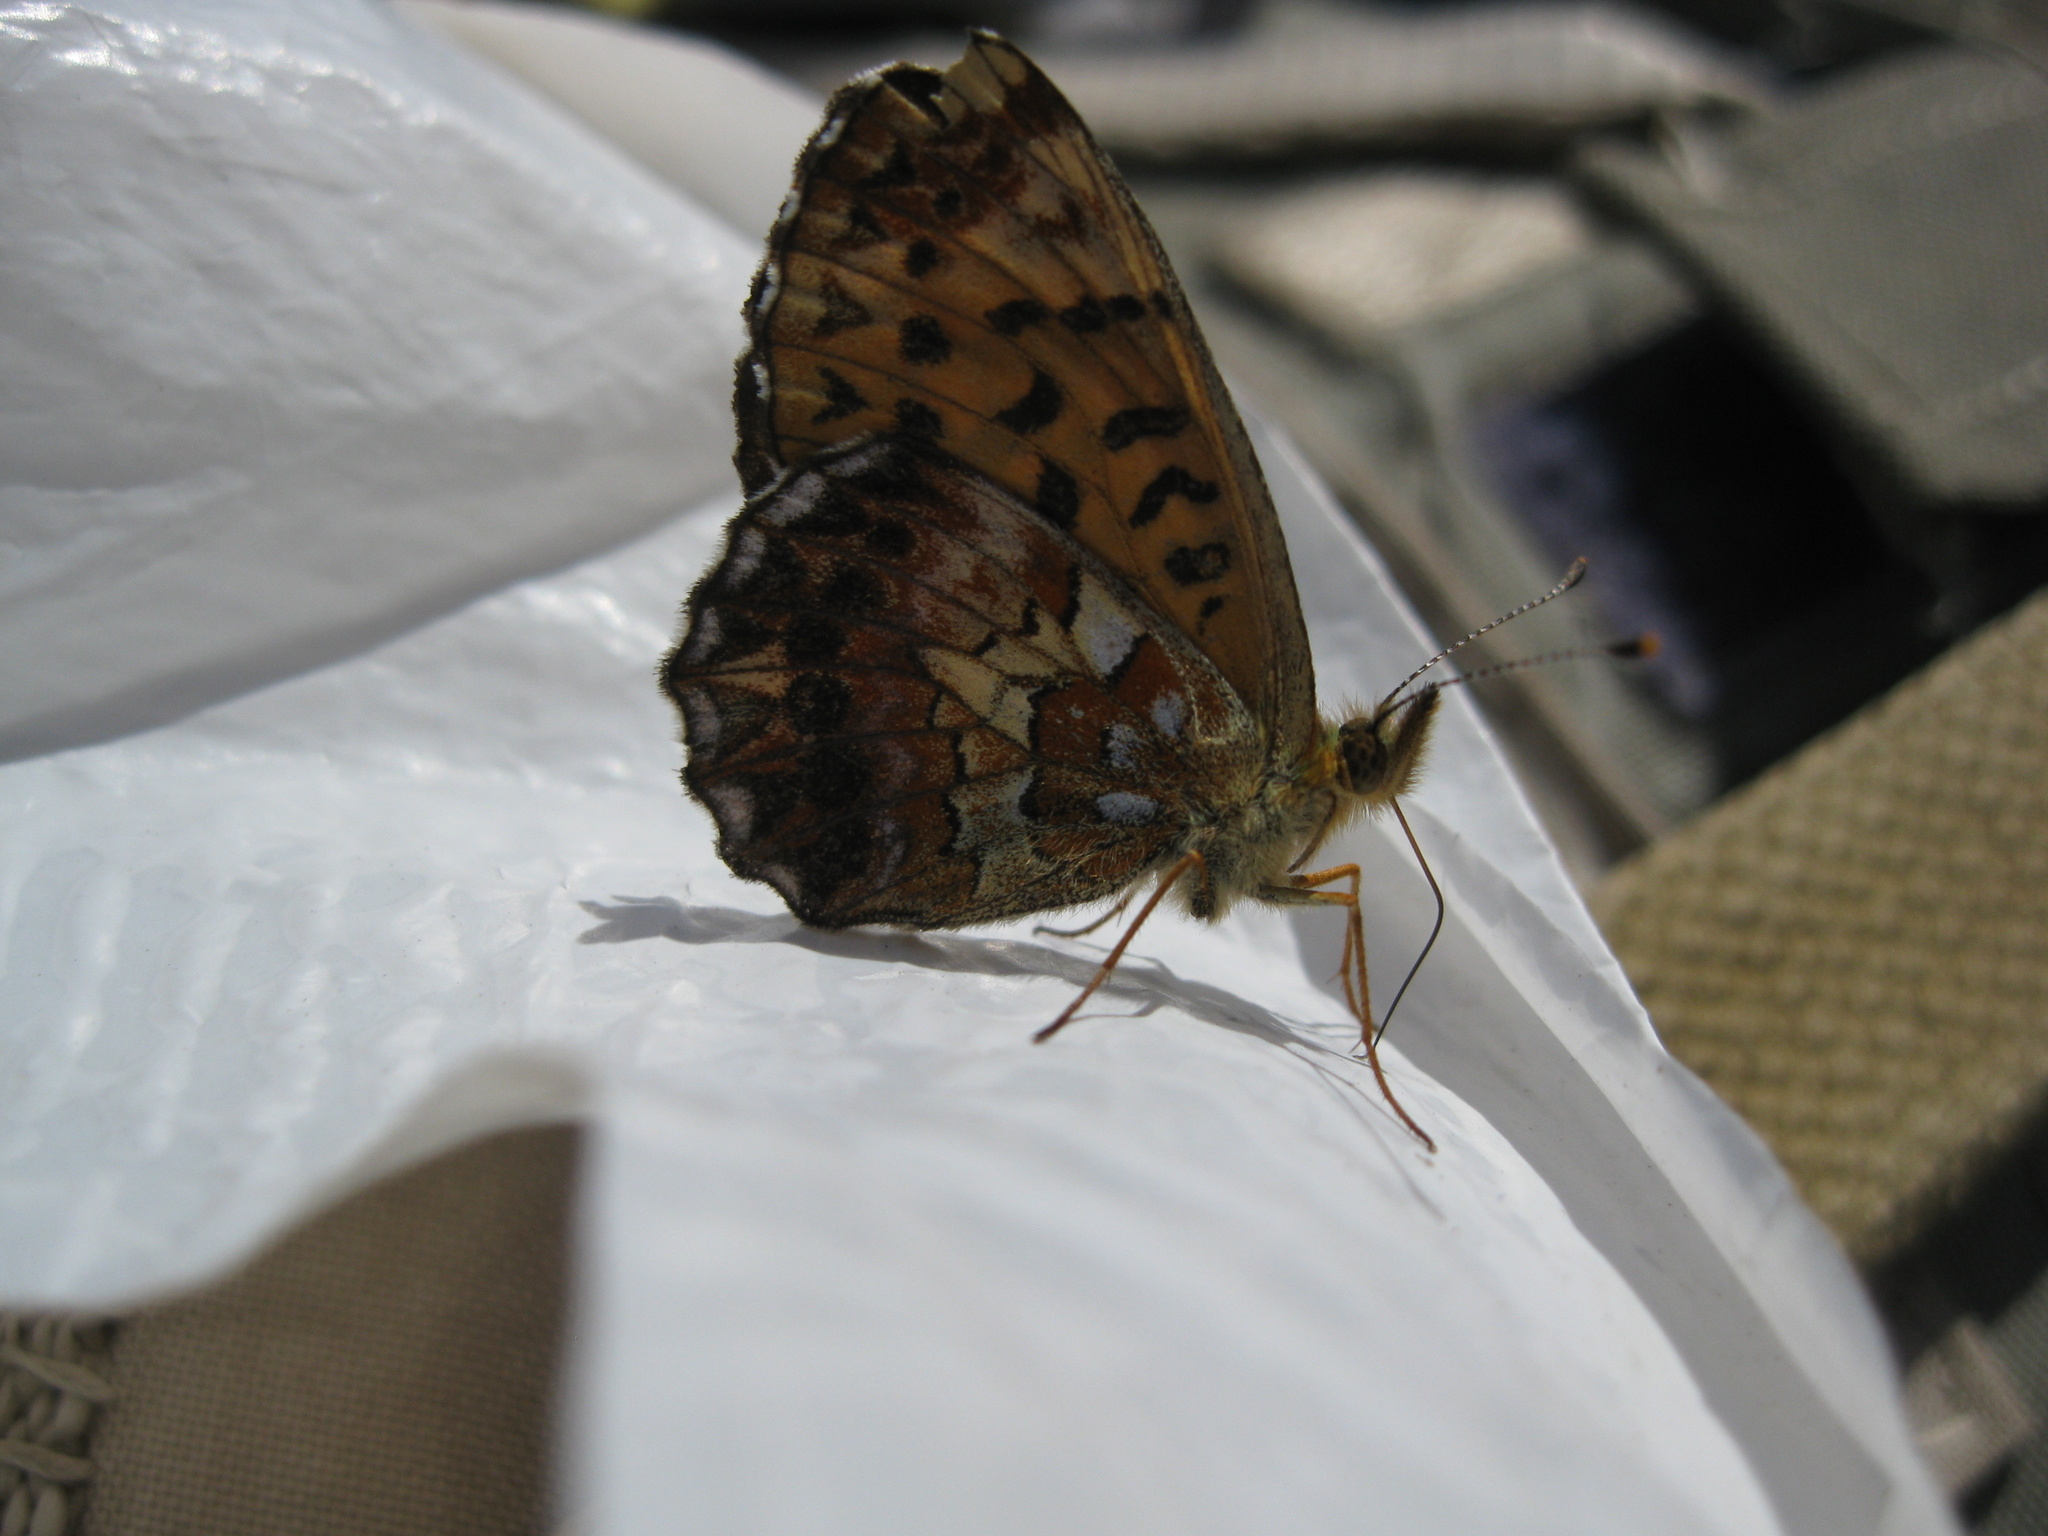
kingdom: Animalia
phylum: Arthropoda
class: Insecta
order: Lepidoptera
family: Nymphalidae
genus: Clossiana
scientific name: Clossiana angarensis
